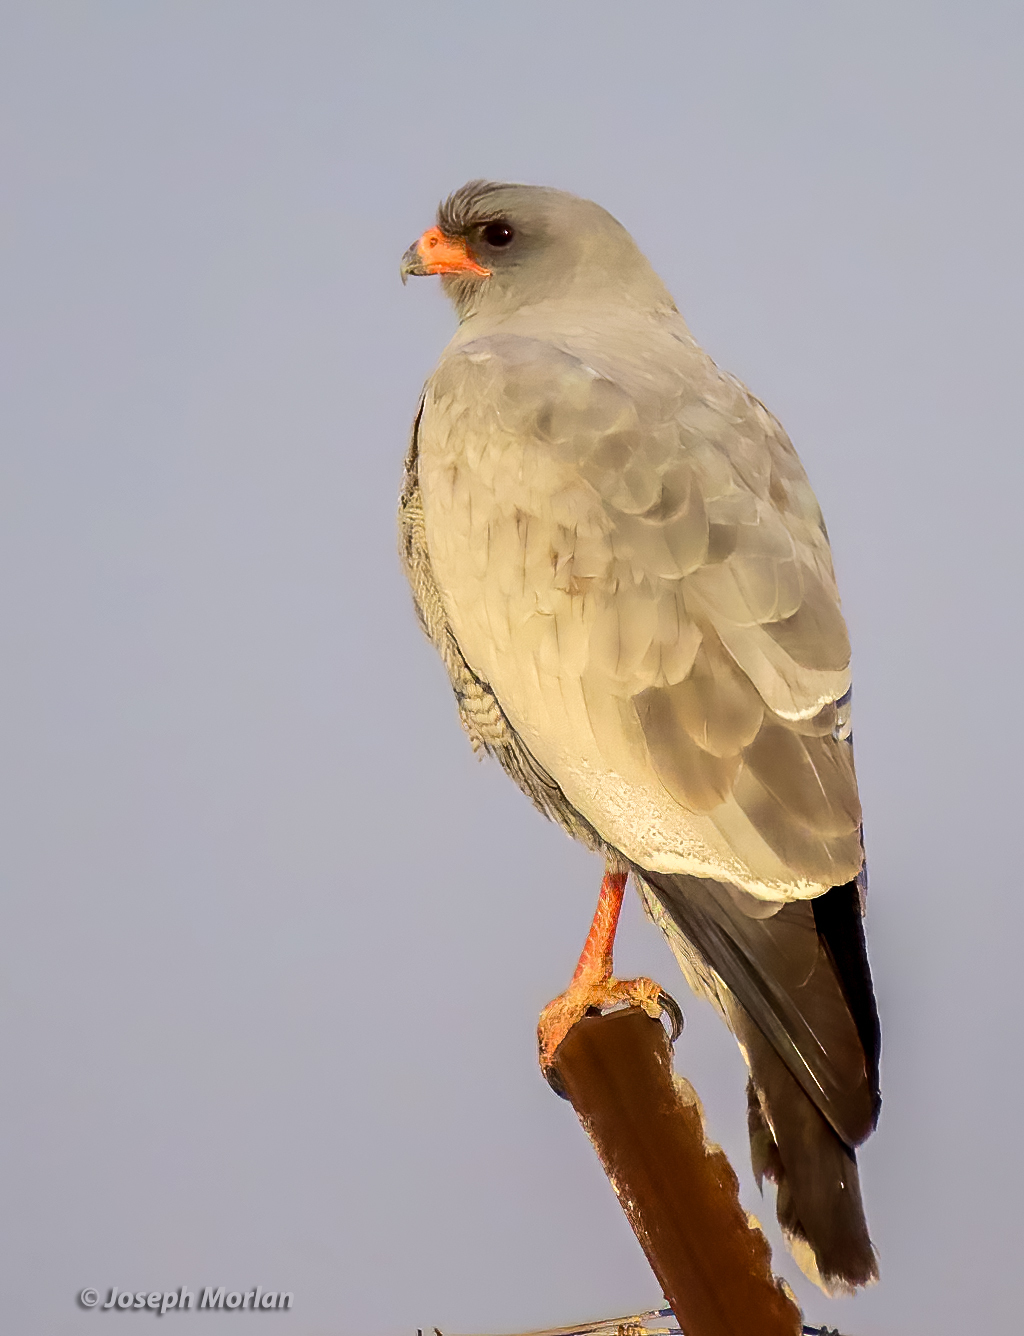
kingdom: Animalia
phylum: Chordata
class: Aves
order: Accipitriformes
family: Accipitridae
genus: Melierax
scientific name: Melierax canorus
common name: Pale chanting-goshawk
